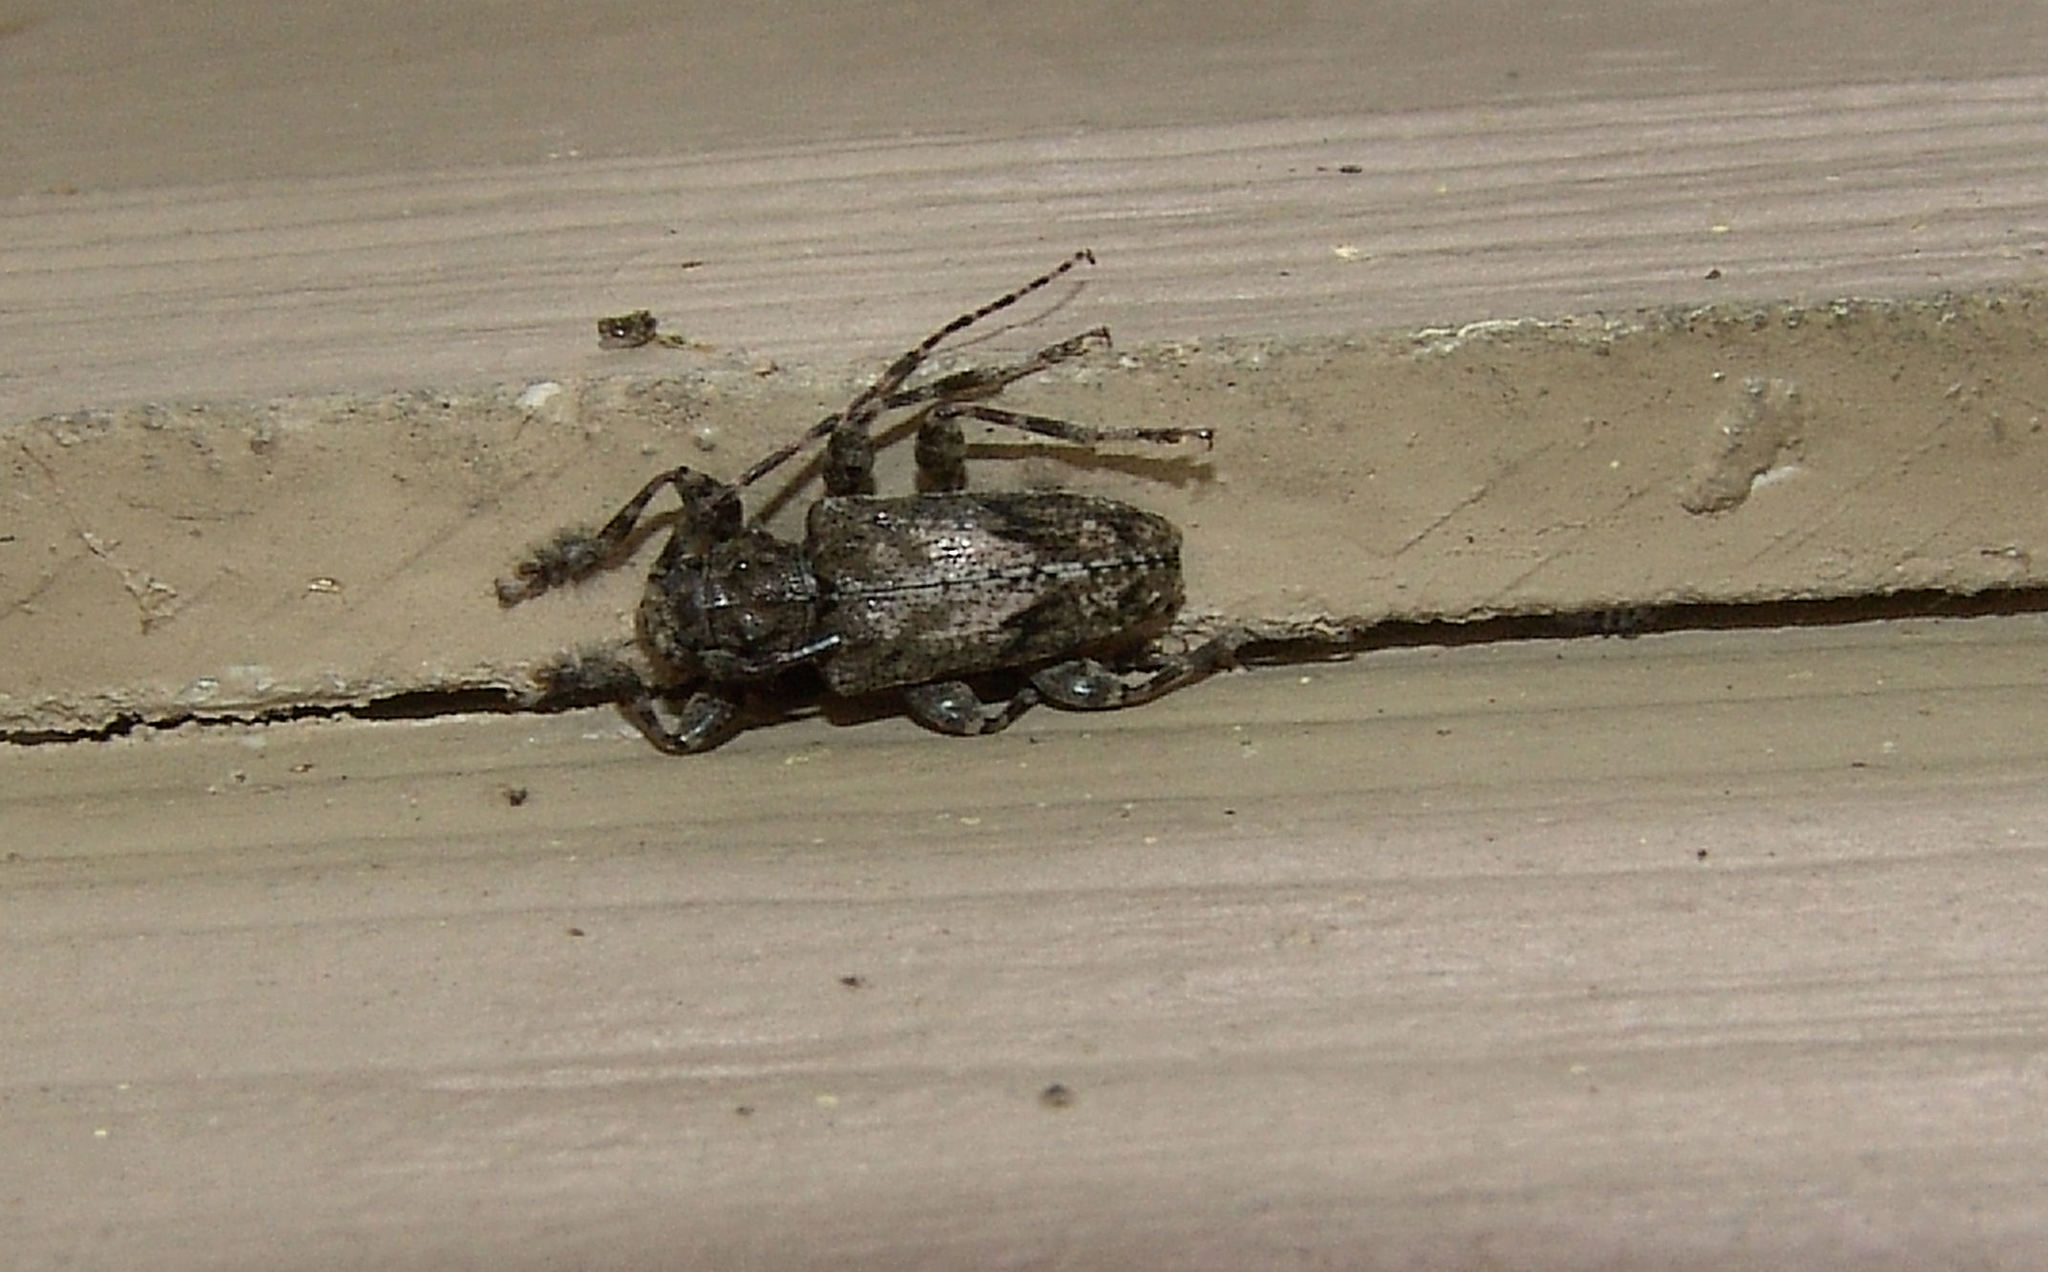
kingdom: Animalia
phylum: Arthropoda
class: Insecta
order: Coleoptera
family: Cerambycidae
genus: Aegomorphus
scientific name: Aegomorphus modestus
